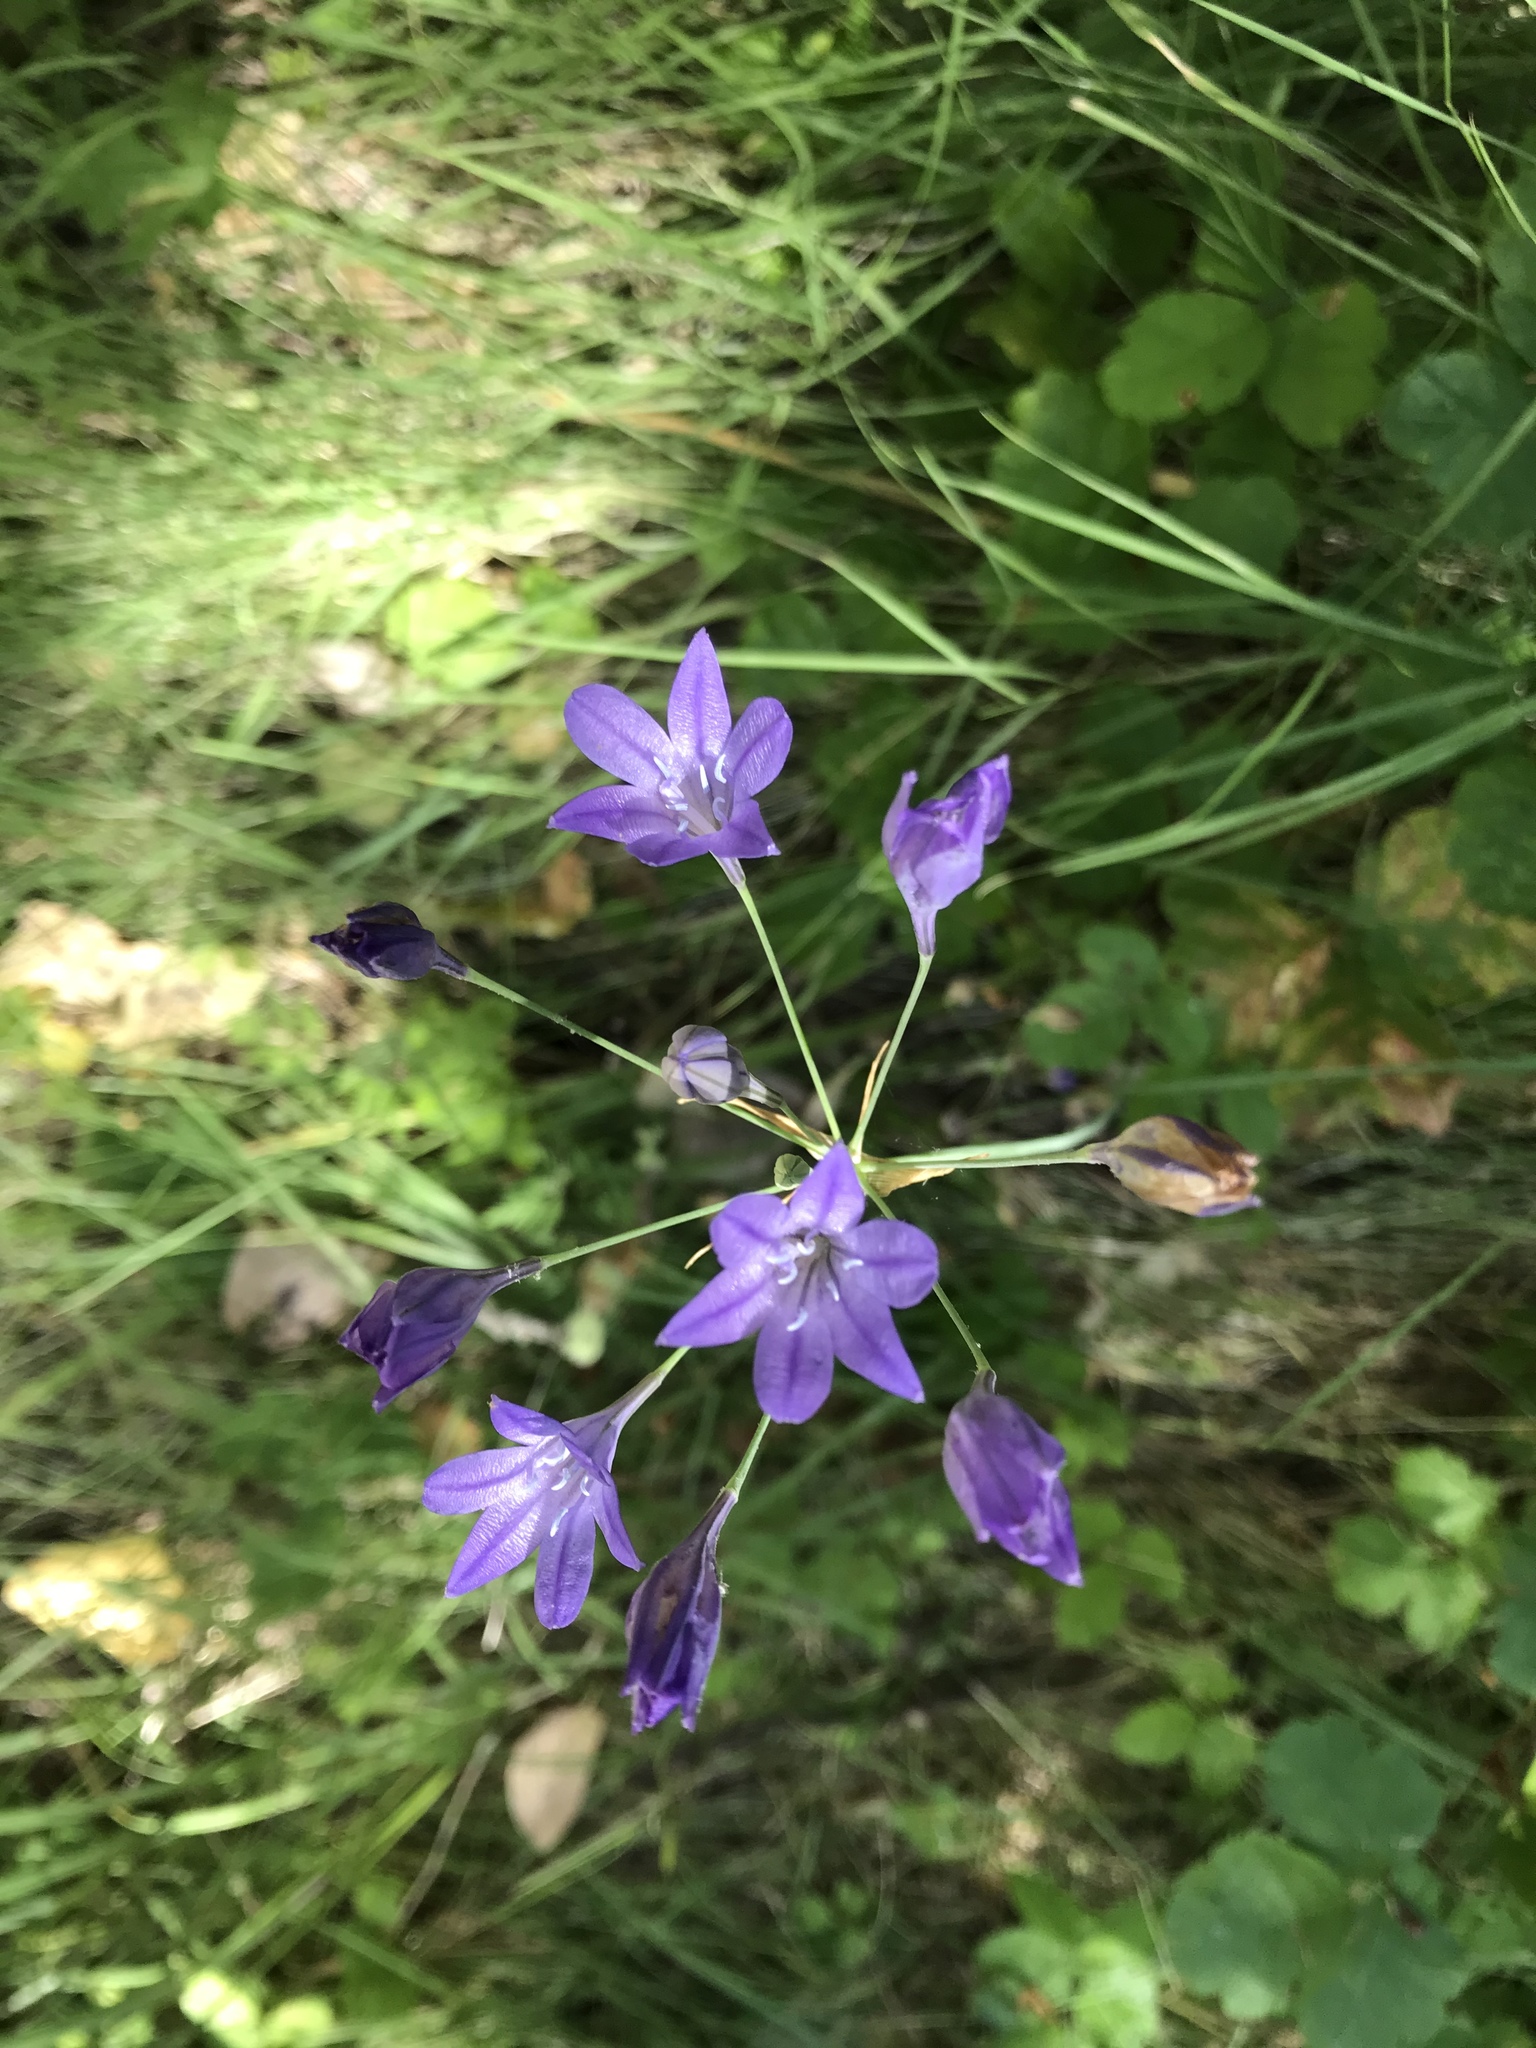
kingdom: Plantae
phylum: Tracheophyta
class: Liliopsida
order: Asparagales
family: Asparagaceae
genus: Triteleia
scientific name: Triteleia laxa
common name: Triplet-lily
